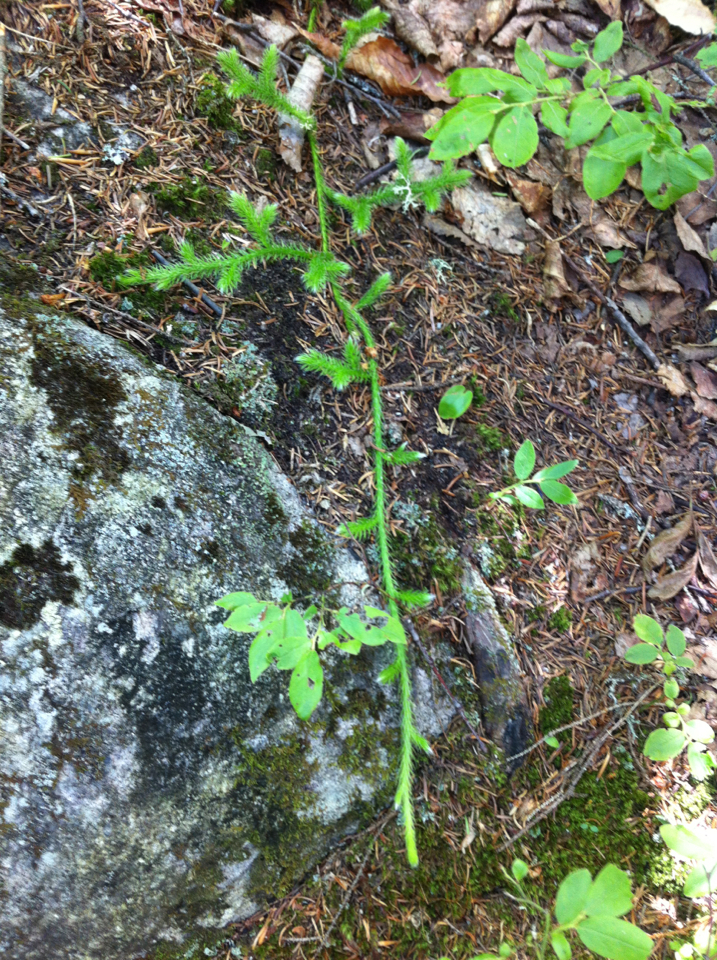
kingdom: Plantae
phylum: Tracheophyta
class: Lycopodiopsida
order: Lycopodiales
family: Lycopodiaceae
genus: Lycopodium
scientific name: Lycopodium clavatum
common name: Stag's-horn clubmoss
